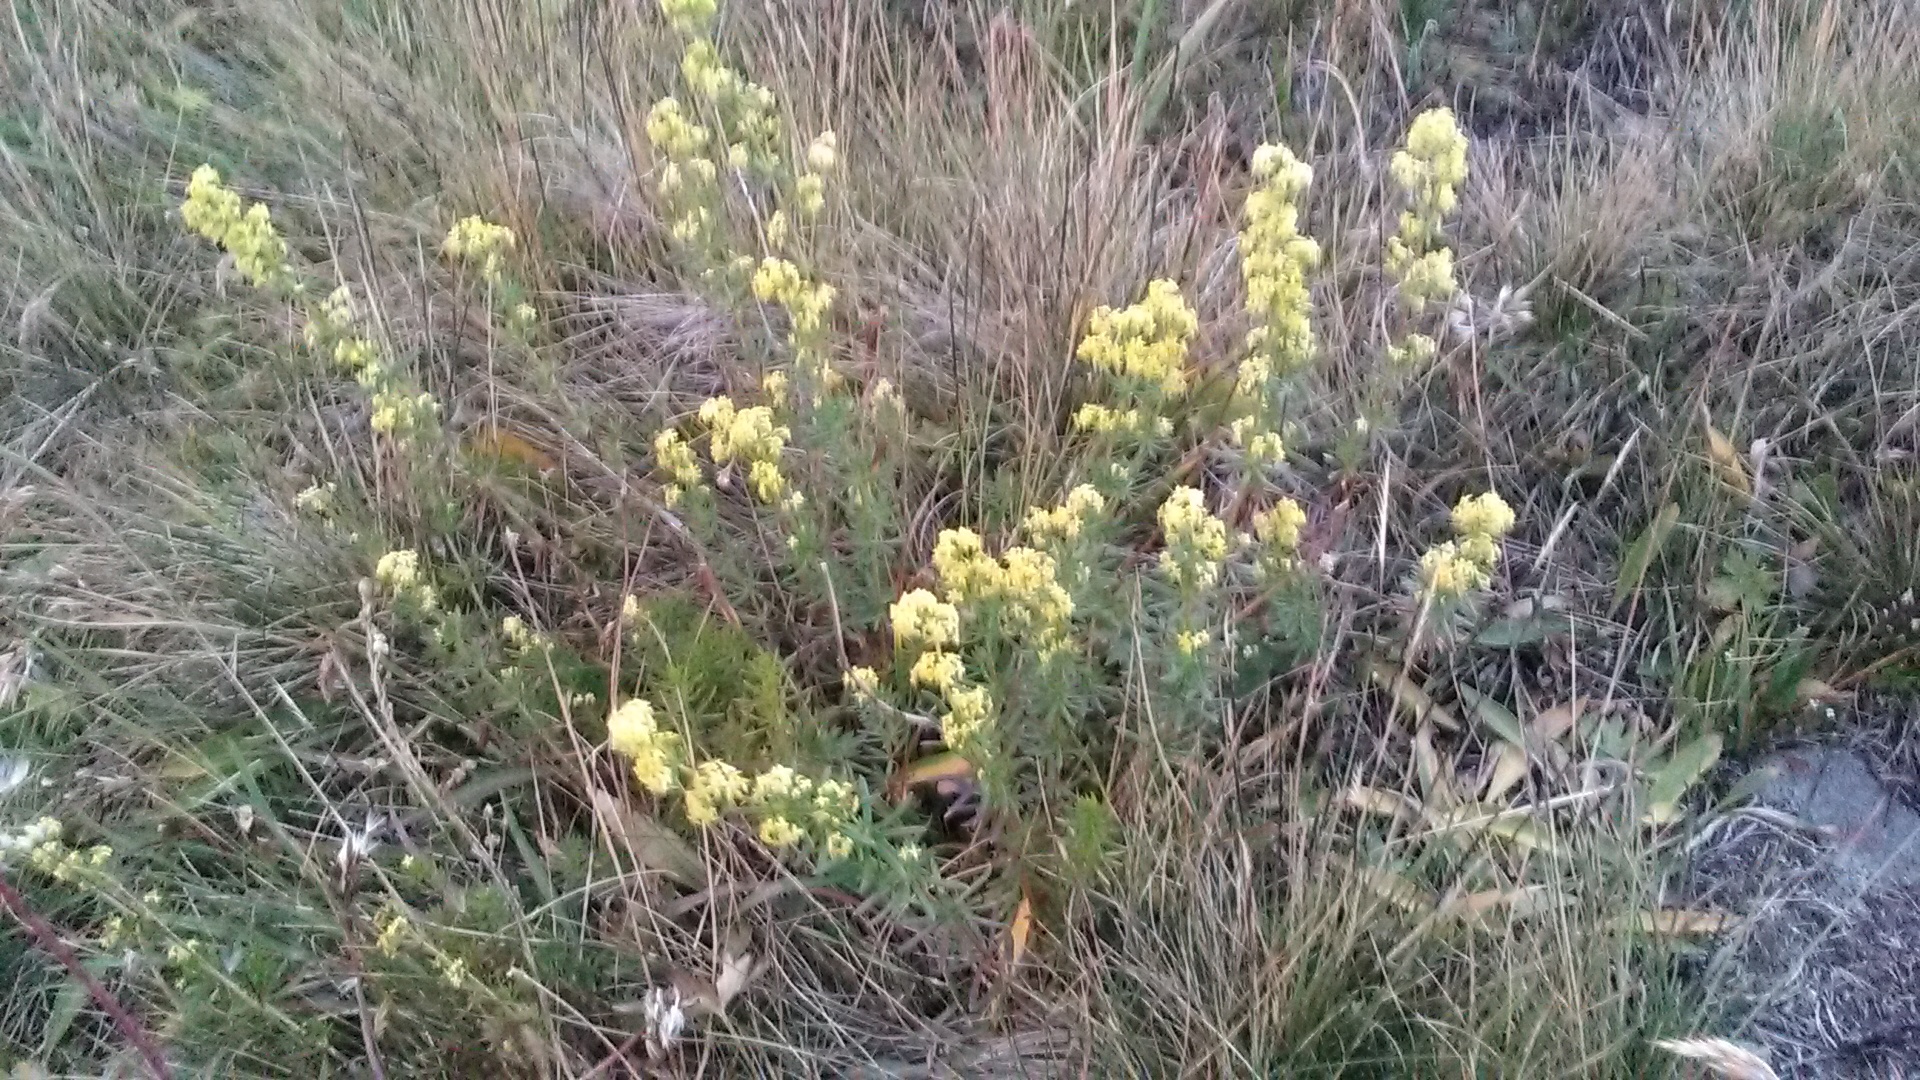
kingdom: Plantae
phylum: Tracheophyta
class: Magnoliopsida
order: Gentianales
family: Rubiaceae
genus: Galium
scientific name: Galium verum
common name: Lady's bedstraw
